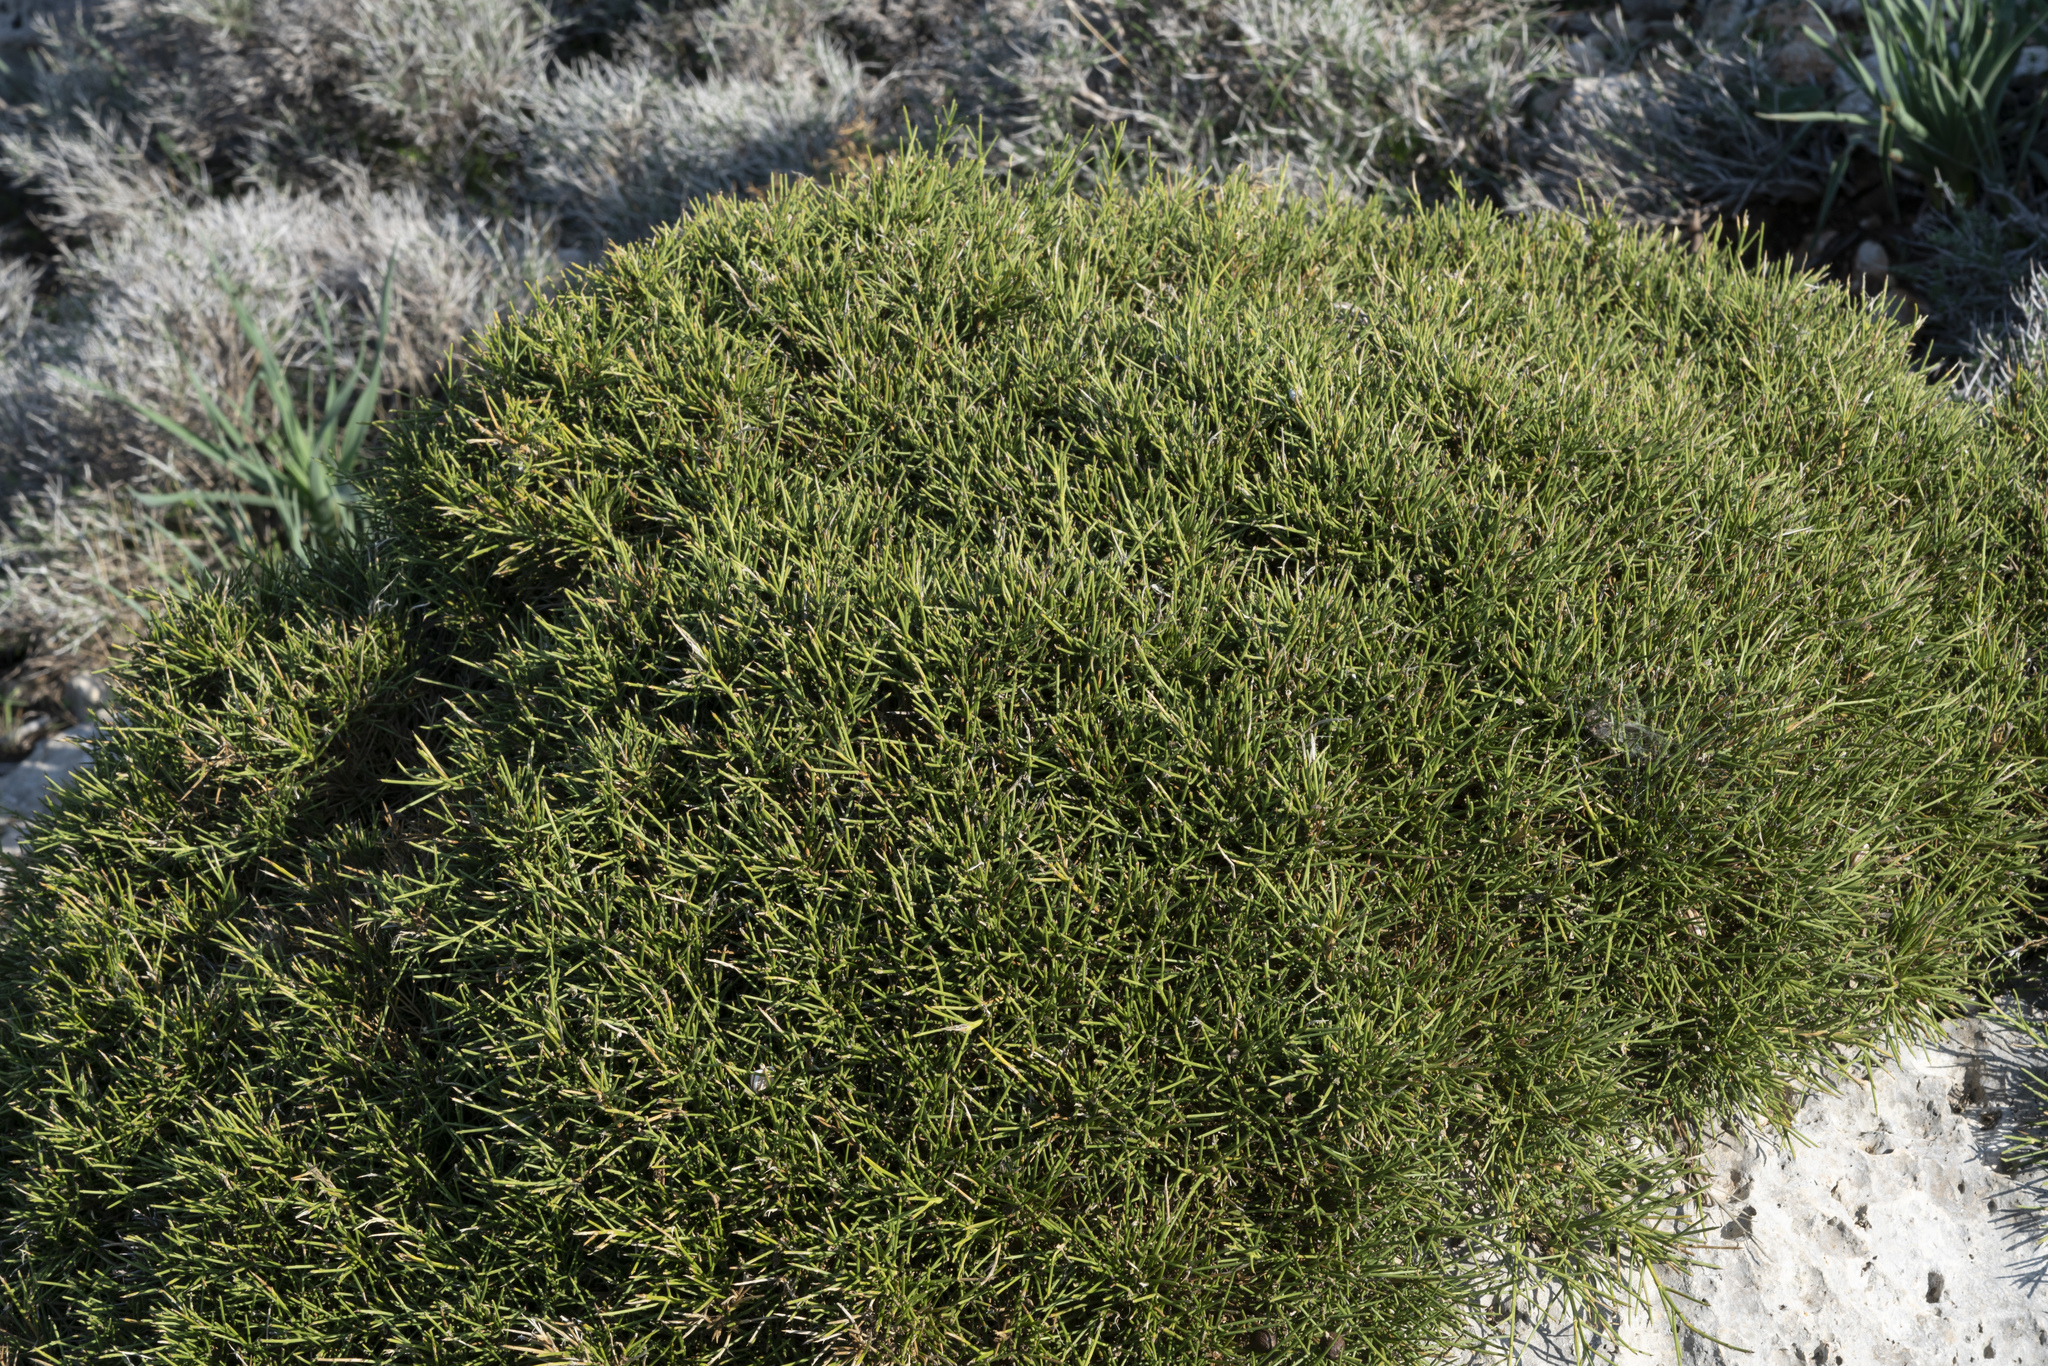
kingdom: Plantae
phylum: Tracheophyta
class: Magnoliopsida
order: Fabales
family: Fabaceae
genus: Genista
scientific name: Genista acanthoclada
